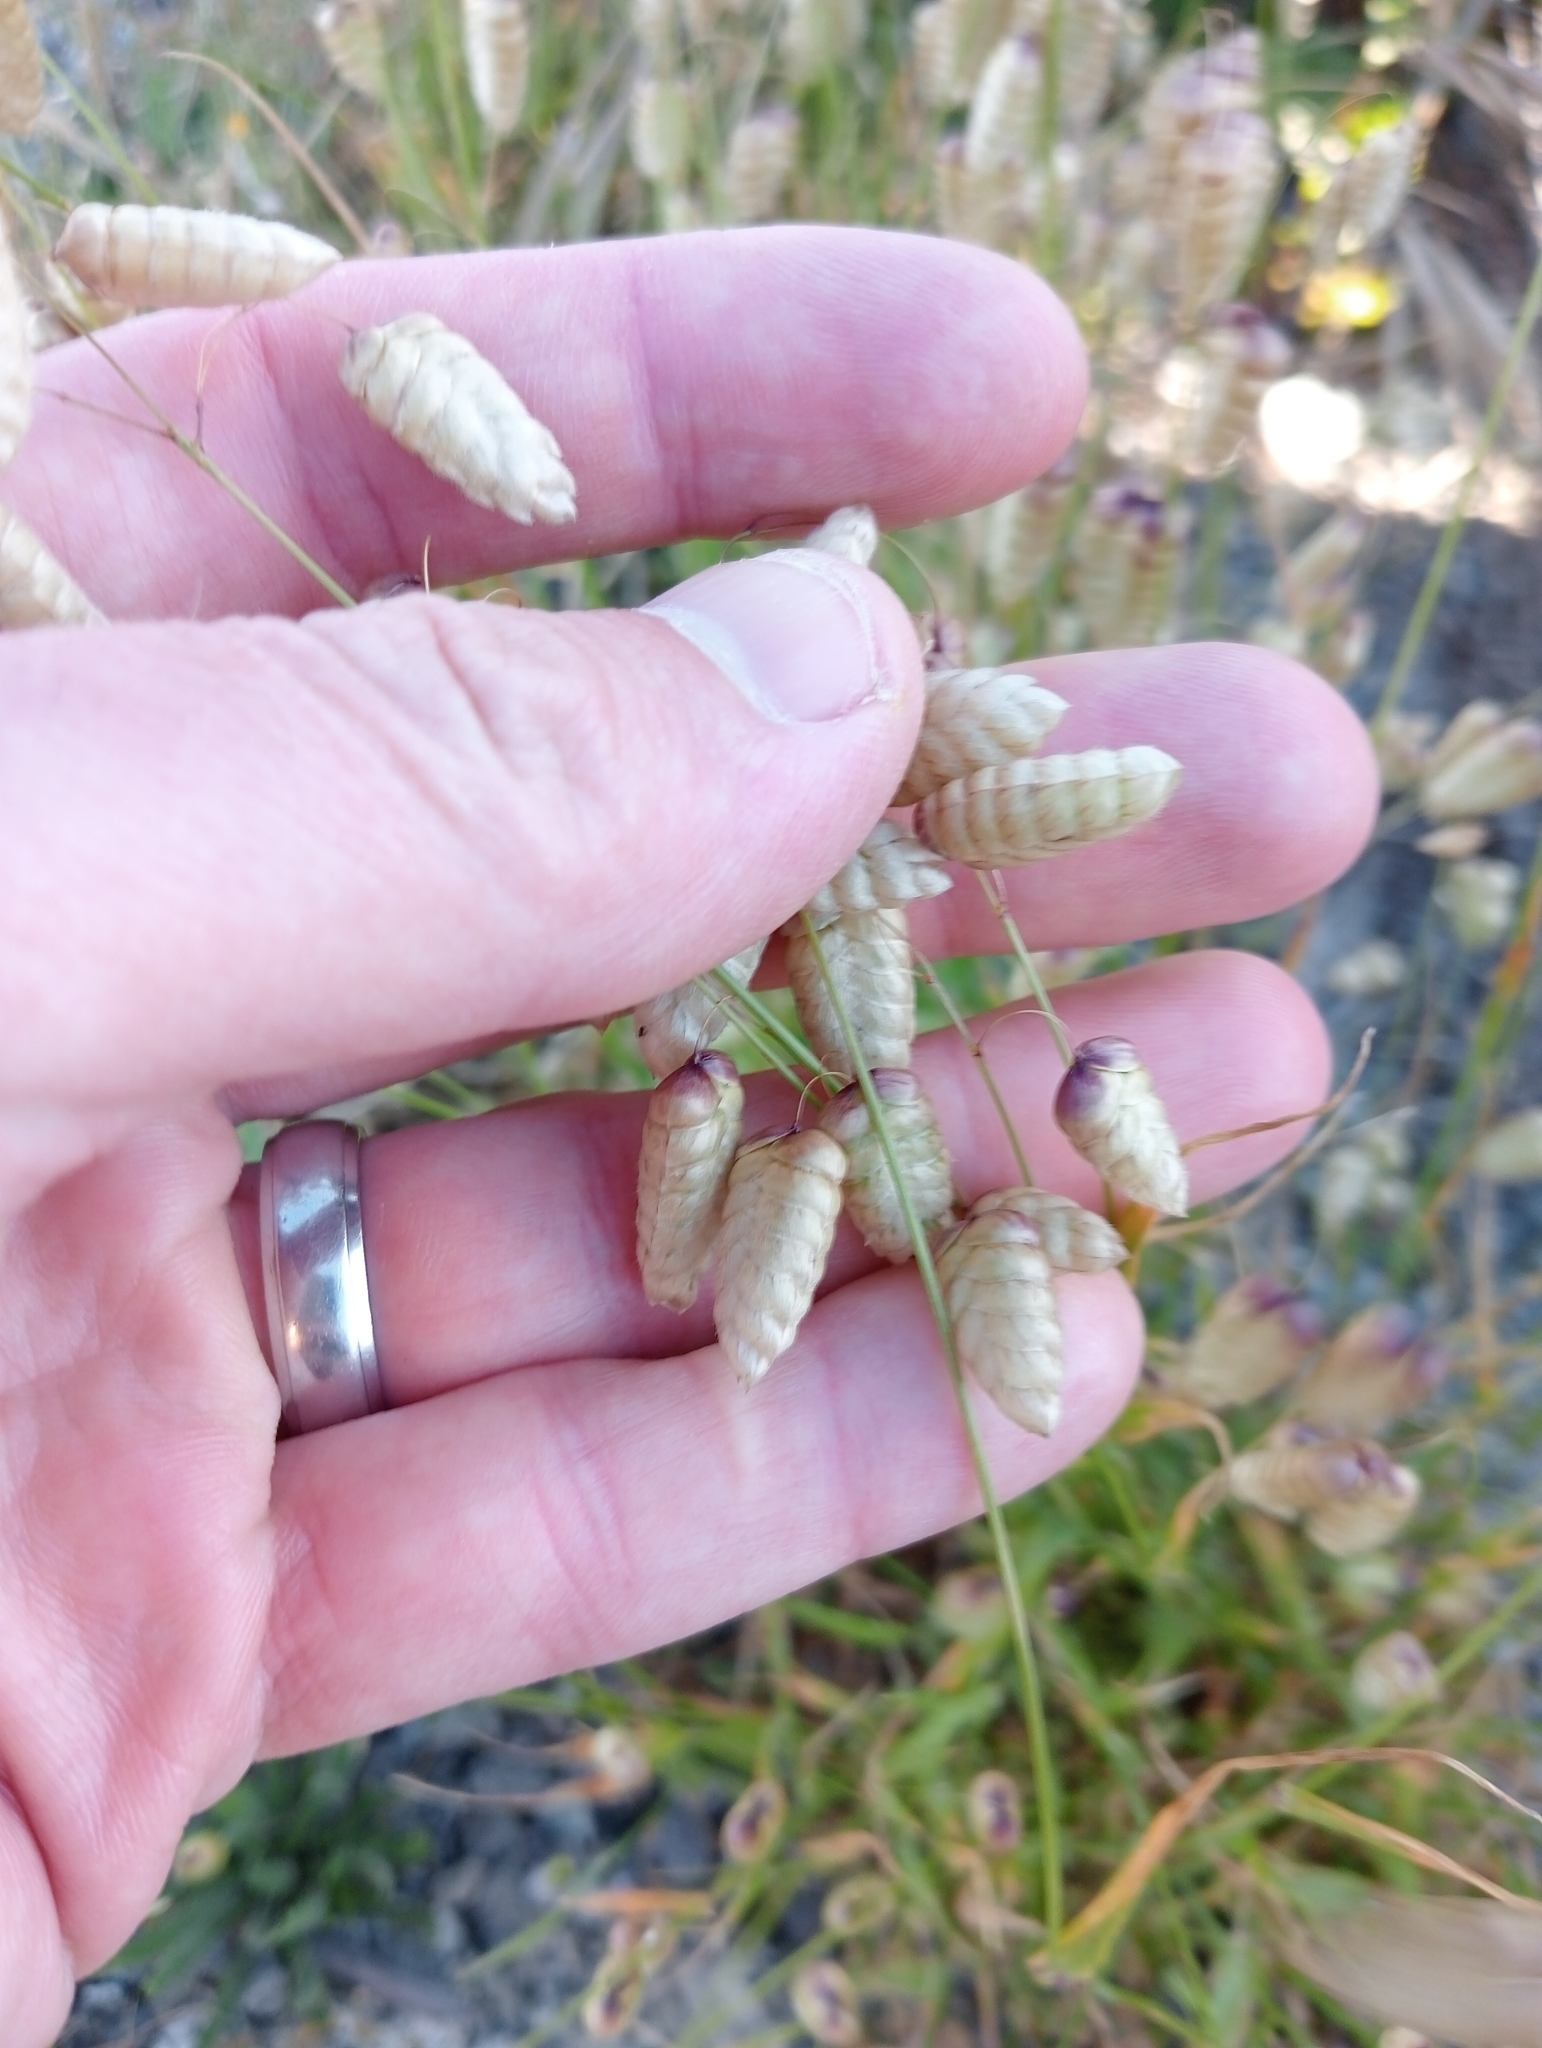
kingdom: Plantae
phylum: Tracheophyta
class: Liliopsida
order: Poales
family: Poaceae
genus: Briza
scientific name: Briza maxima
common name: Big quakinggrass
